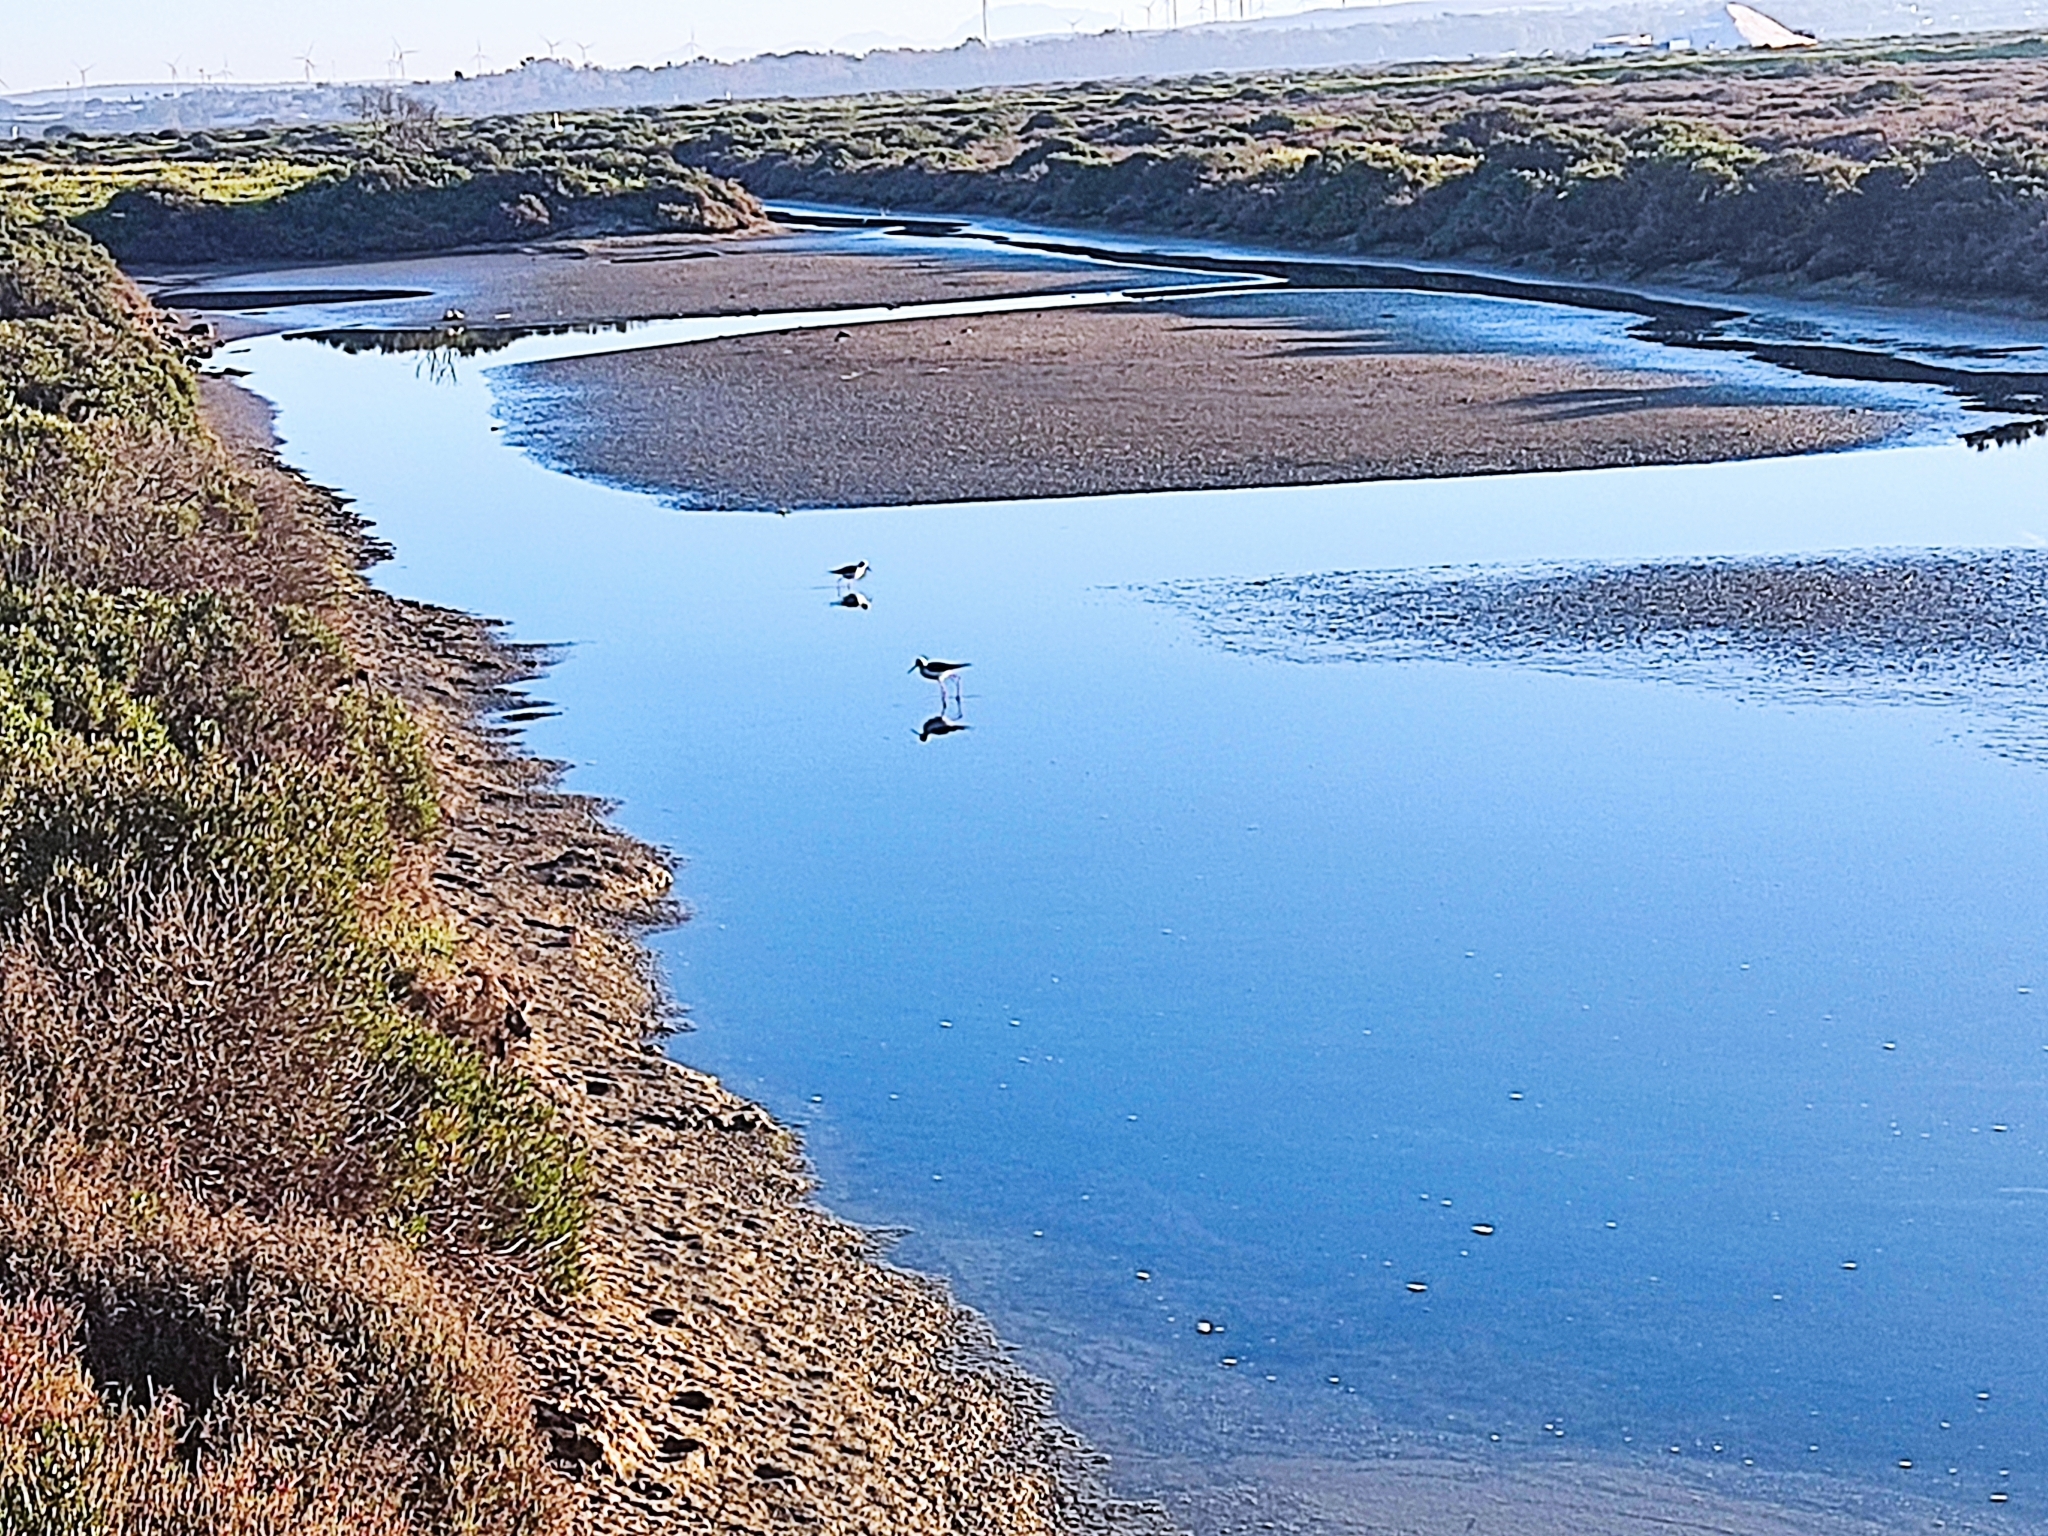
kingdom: Animalia
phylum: Chordata
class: Aves
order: Charadriiformes
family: Recurvirostridae
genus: Himantopus
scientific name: Himantopus himantopus
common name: Black-winged stilt
